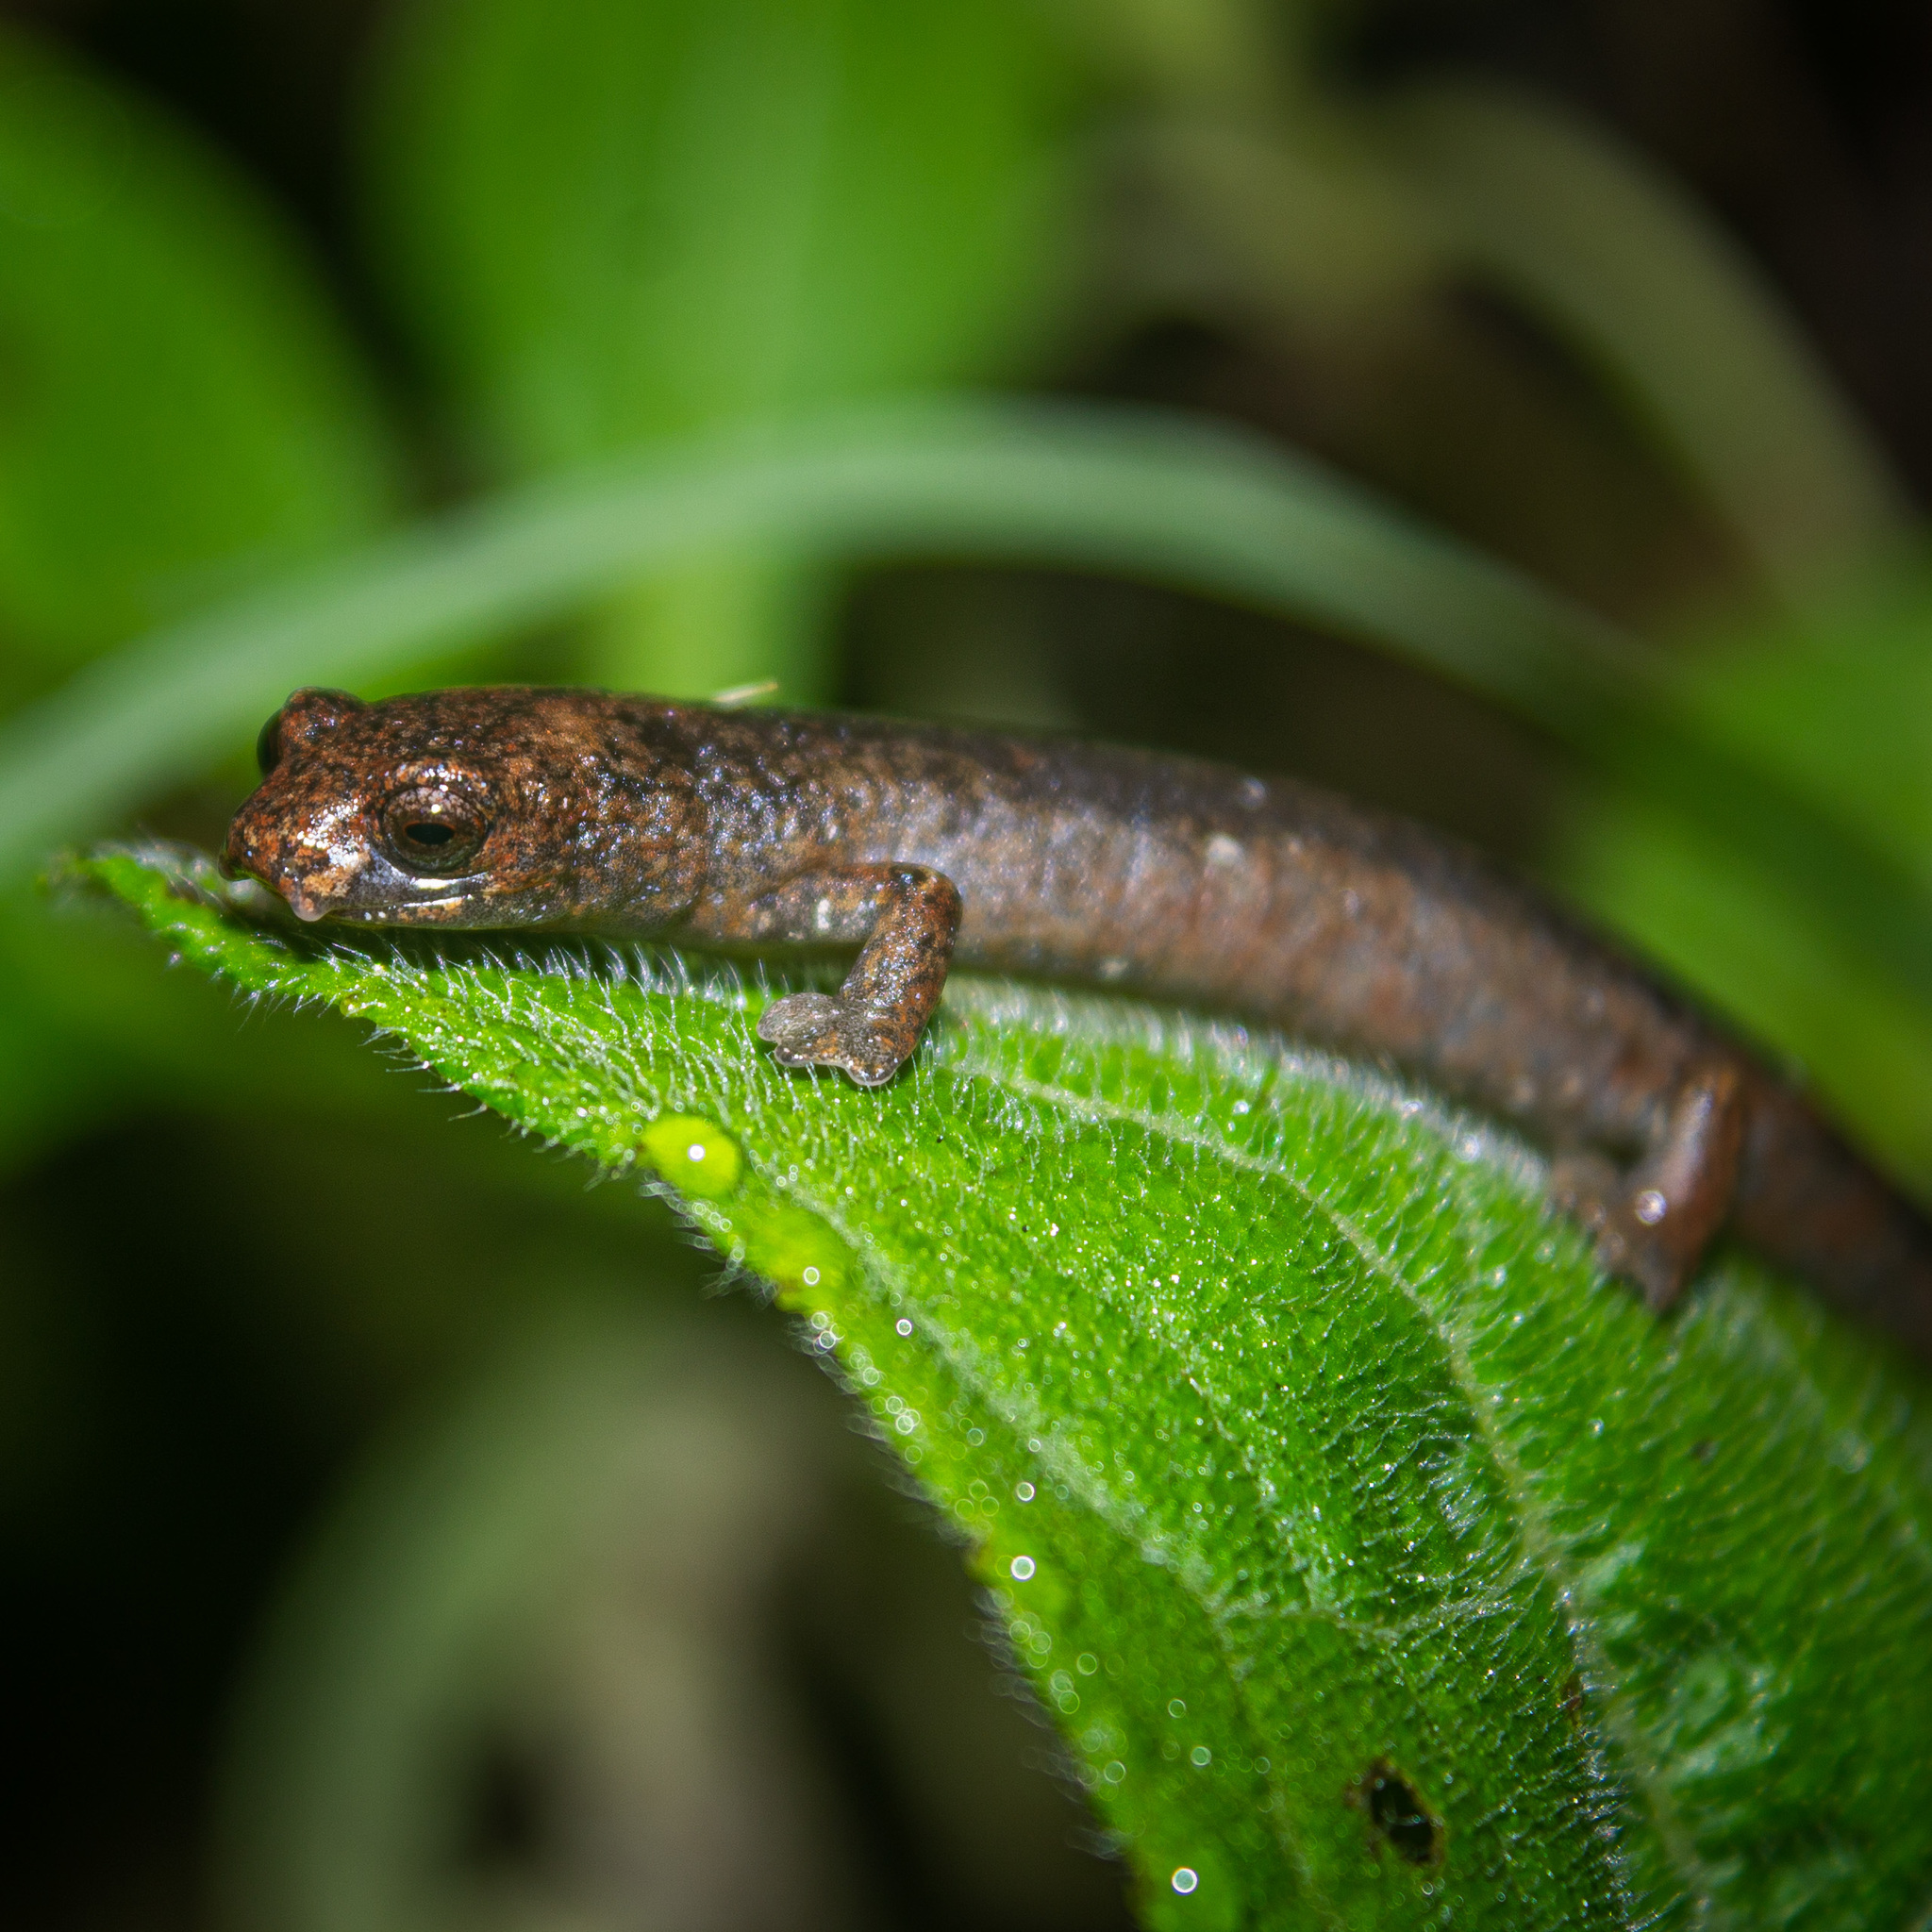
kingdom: Animalia
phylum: Chordata
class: Amphibia
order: Caudata
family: Plethodontidae
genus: Bolitoglossa
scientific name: Bolitoglossa savagei
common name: Savage's mushroomtongue salamander
